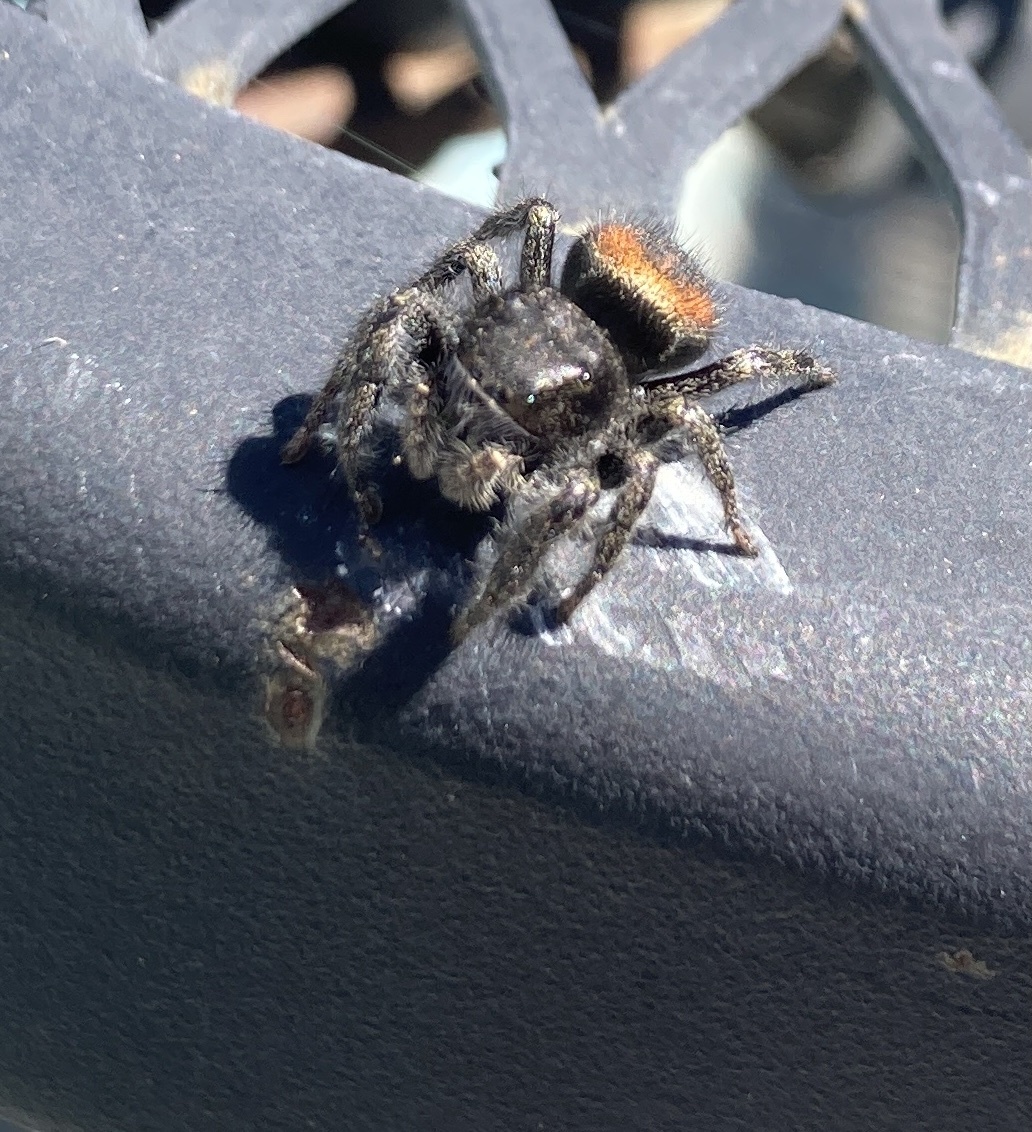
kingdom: Animalia
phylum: Arthropoda
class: Arachnida
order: Araneae
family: Salticidae
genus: Phidippus
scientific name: Phidippus johnsoni
